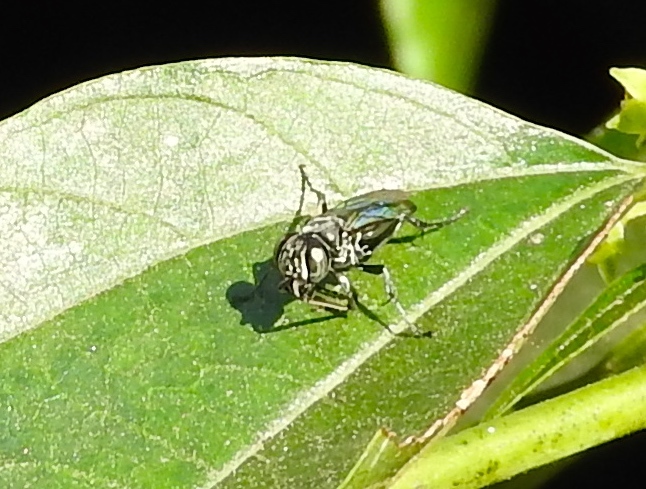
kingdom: Animalia
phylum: Arthropoda
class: Insecta
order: Hymenoptera
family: Crabronidae
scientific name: Crabronidae
